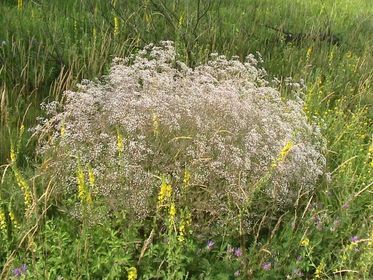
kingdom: Plantae
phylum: Tracheophyta
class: Magnoliopsida
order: Caryophyllales
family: Caryophyllaceae
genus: Gypsophila
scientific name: Gypsophila paniculata
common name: Baby's-breath
